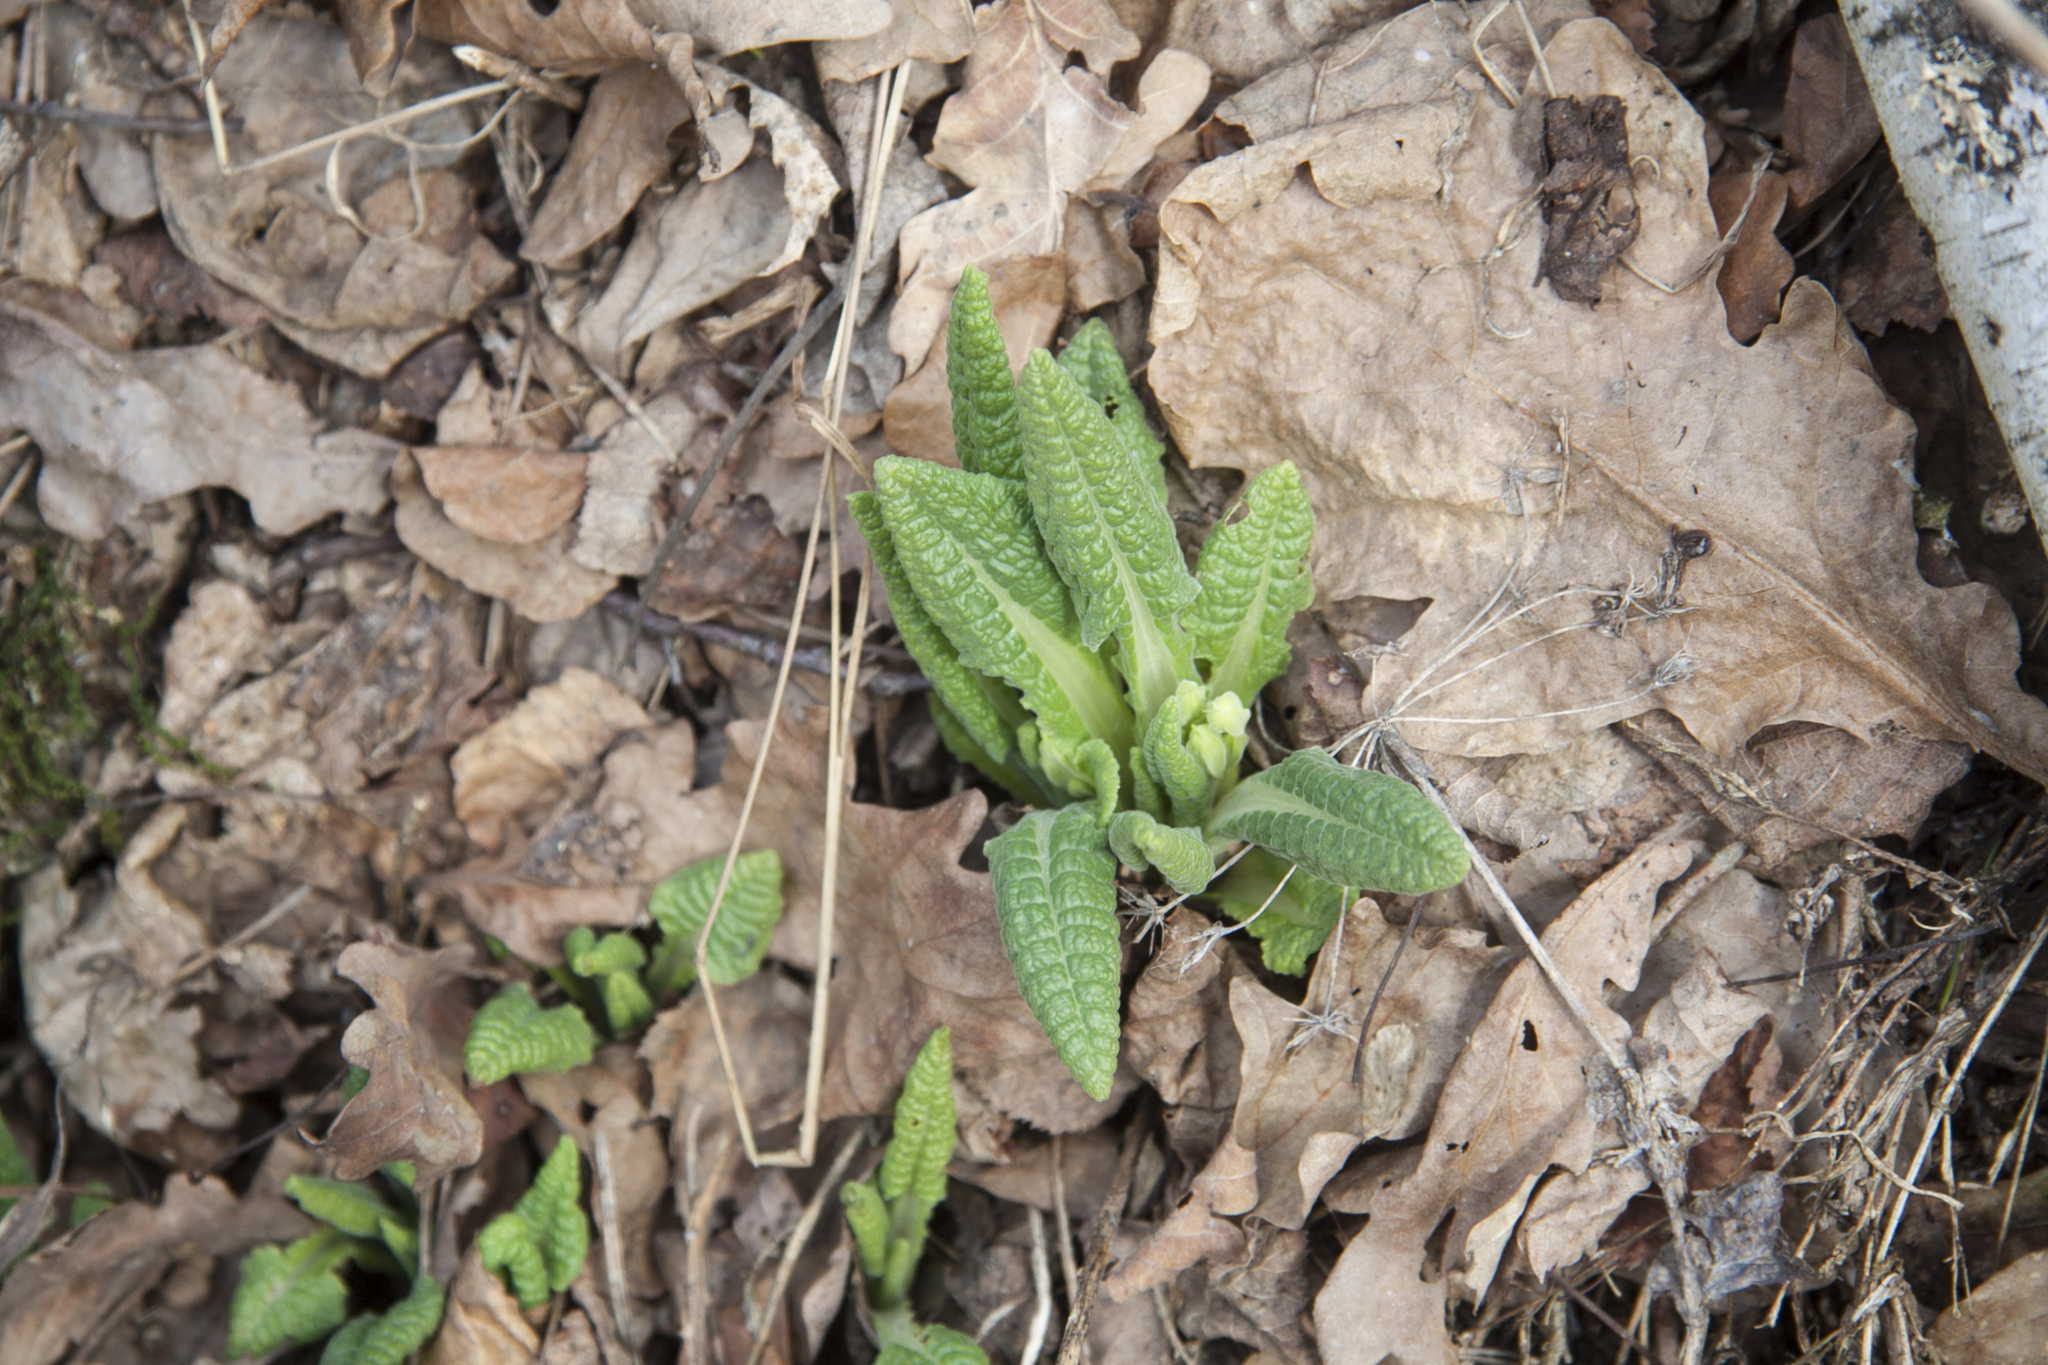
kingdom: Plantae
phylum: Tracheophyta
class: Magnoliopsida
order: Ericales
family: Primulaceae
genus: Primula
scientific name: Primula veris
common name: Cowslip
